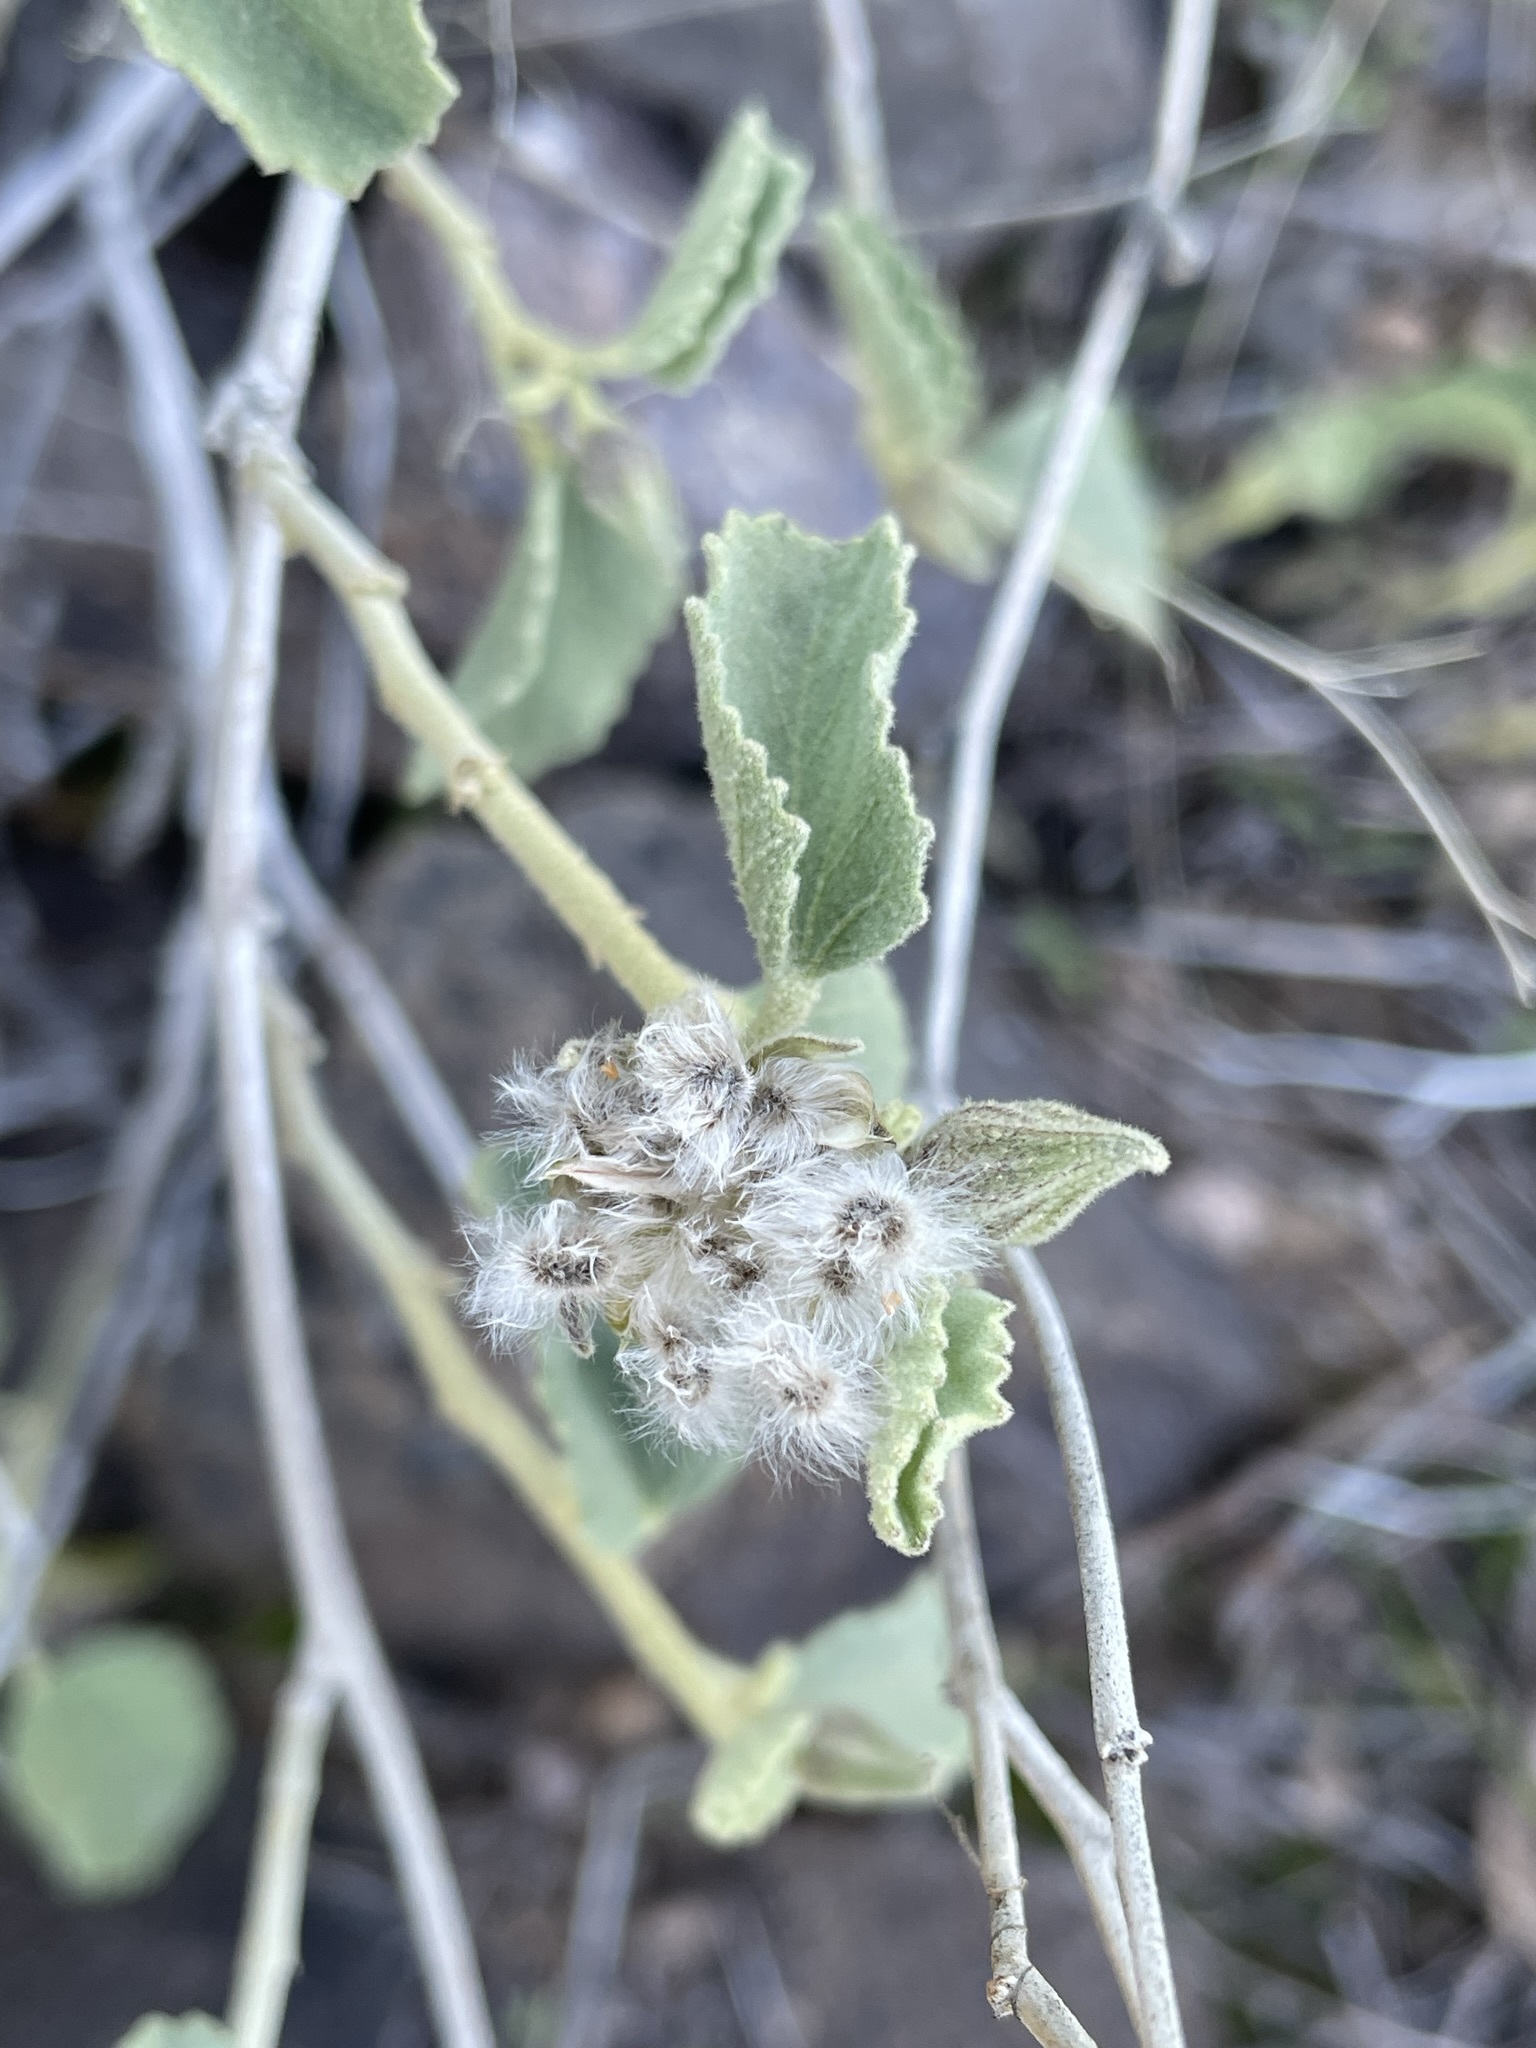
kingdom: Plantae
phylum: Tracheophyta
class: Magnoliopsida
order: Malvales
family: Malvaceae
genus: Hibiscus
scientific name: Hibiscus denudatus
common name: Paleface
